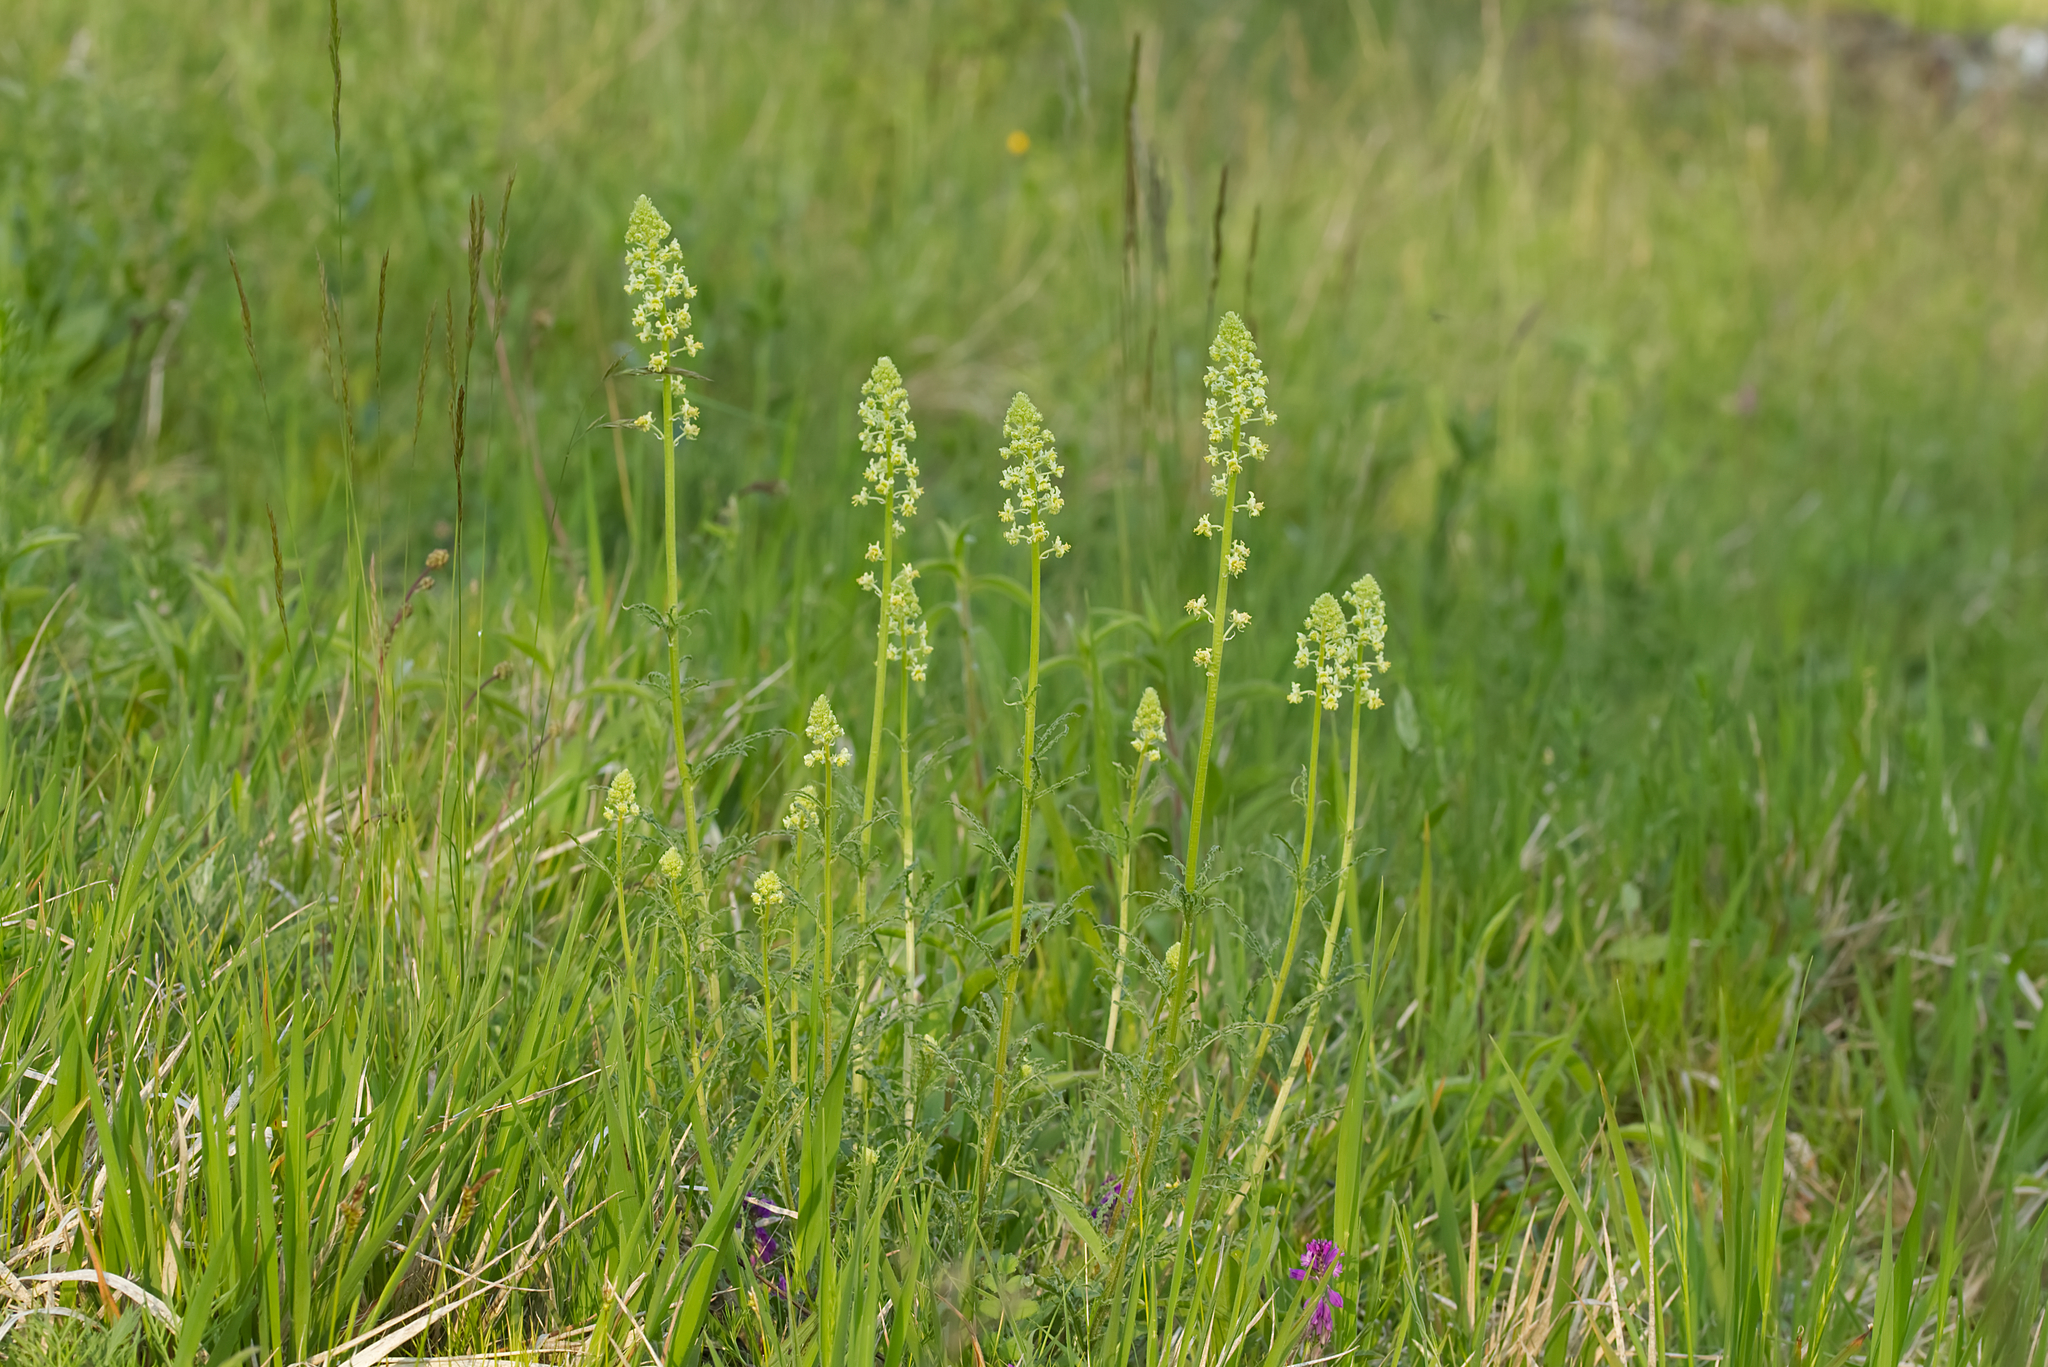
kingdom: Plantae
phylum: Tracheophyta
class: Magnoliopsida
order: Brassicales
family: Resedaceae
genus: Reseda
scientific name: Reseda lutea
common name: Wild mignonette
